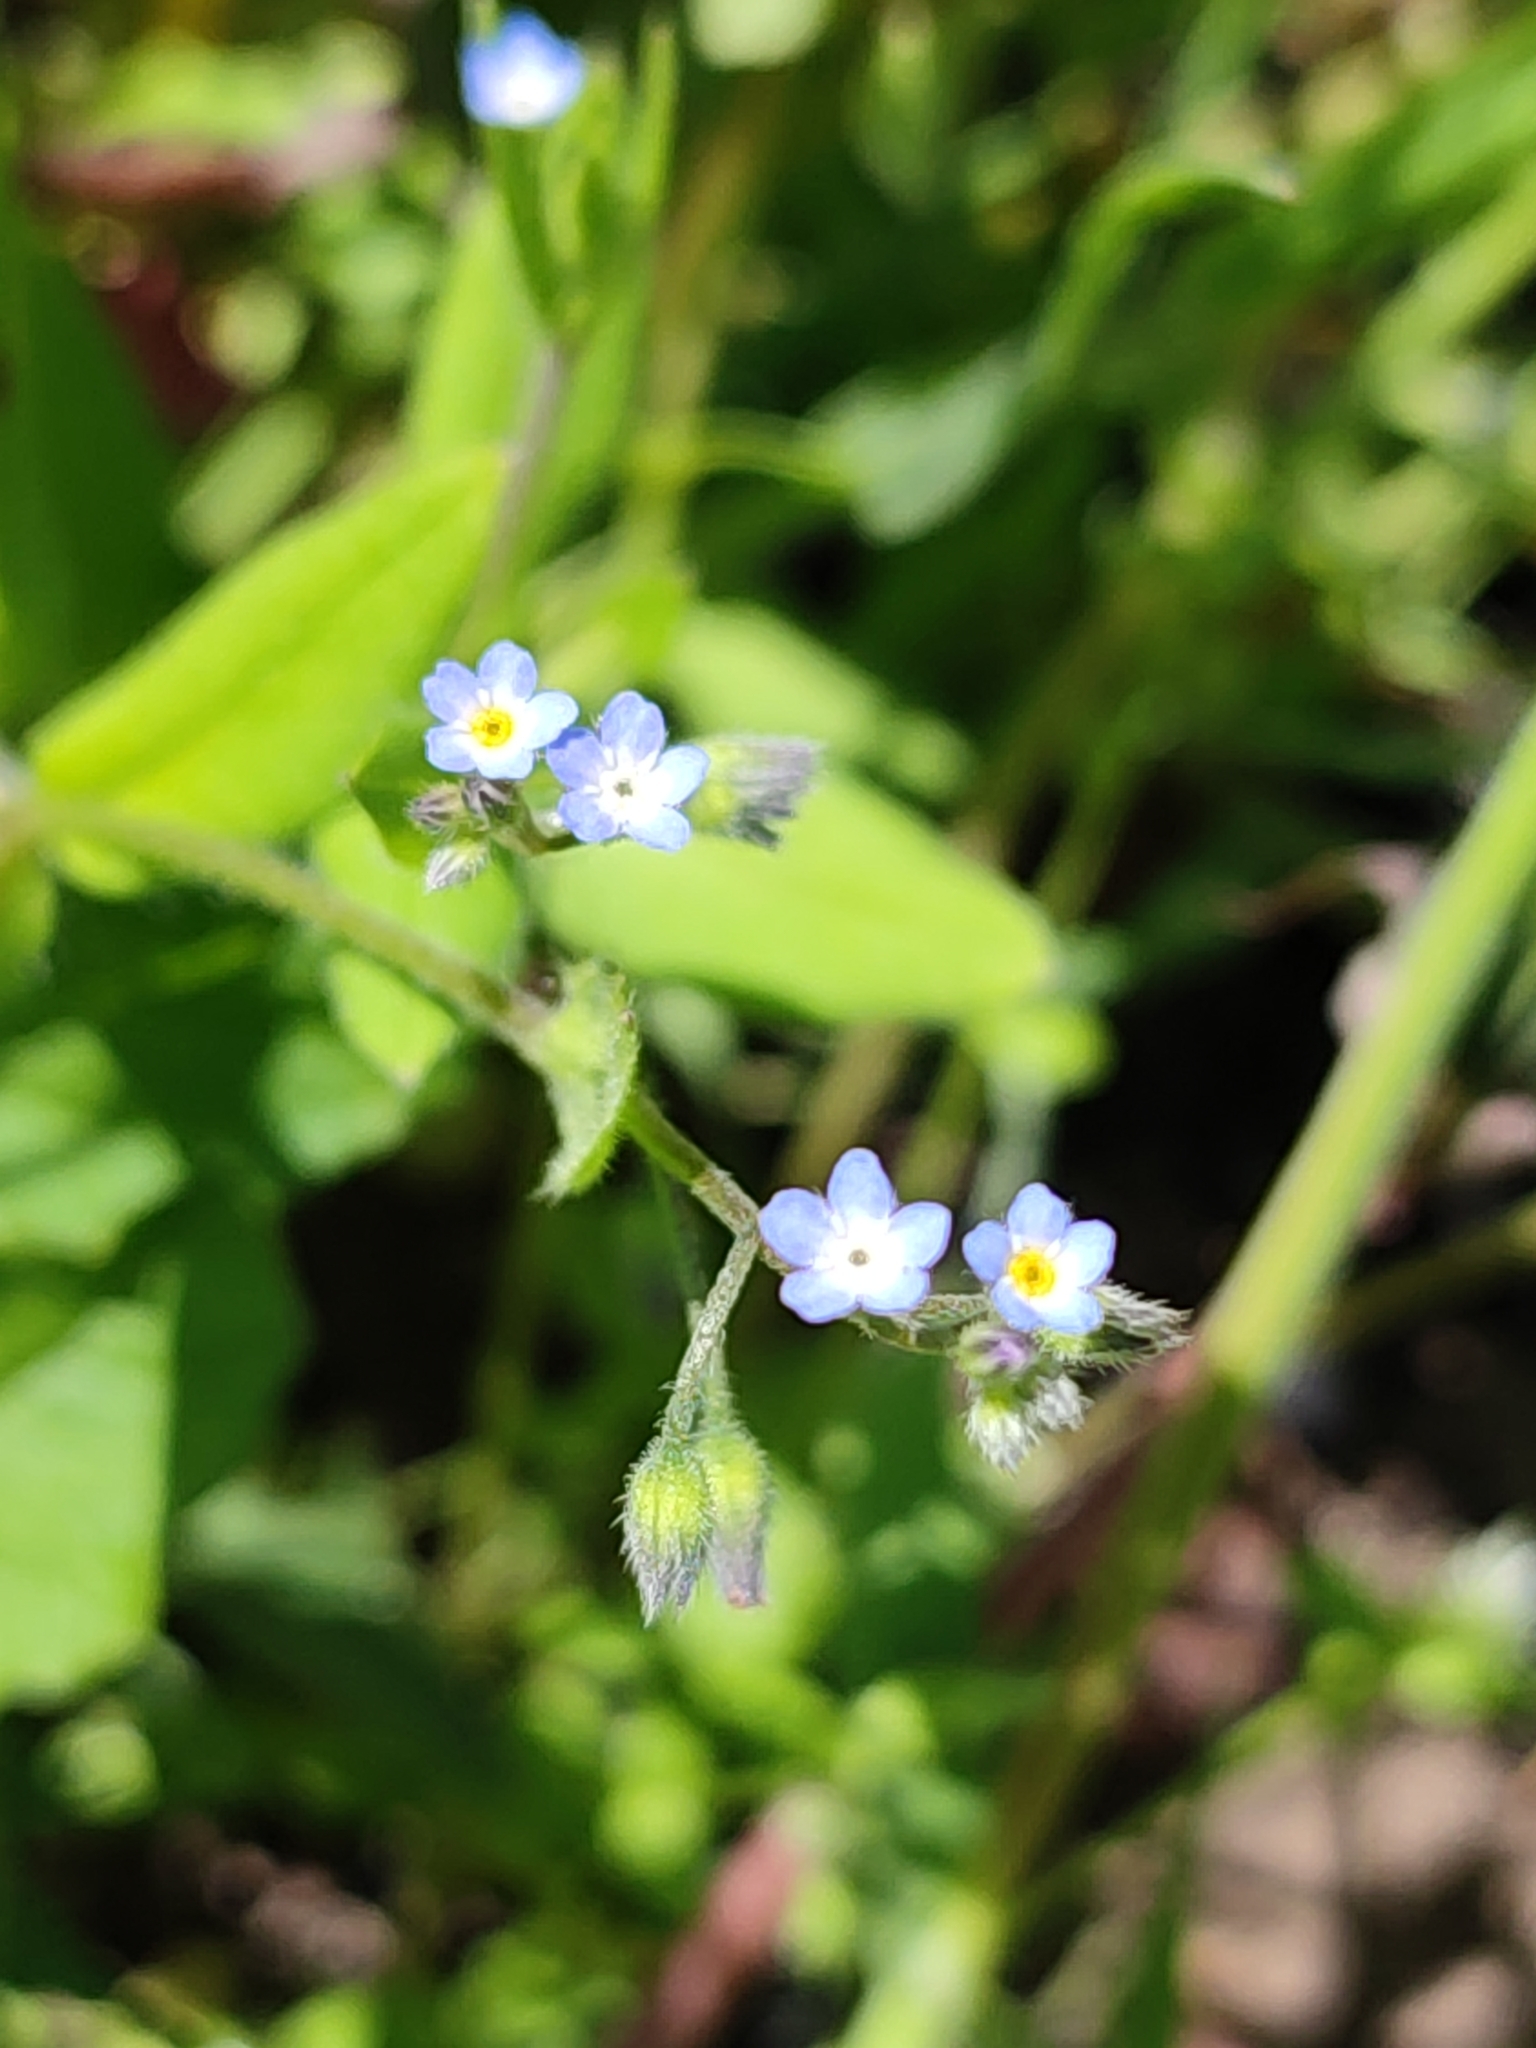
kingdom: Plantae
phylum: Tracheophyta
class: Magnoliopsida
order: Boraginales
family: Boraginaceae
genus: Myosotis
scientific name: Myosotis sparsiflora
